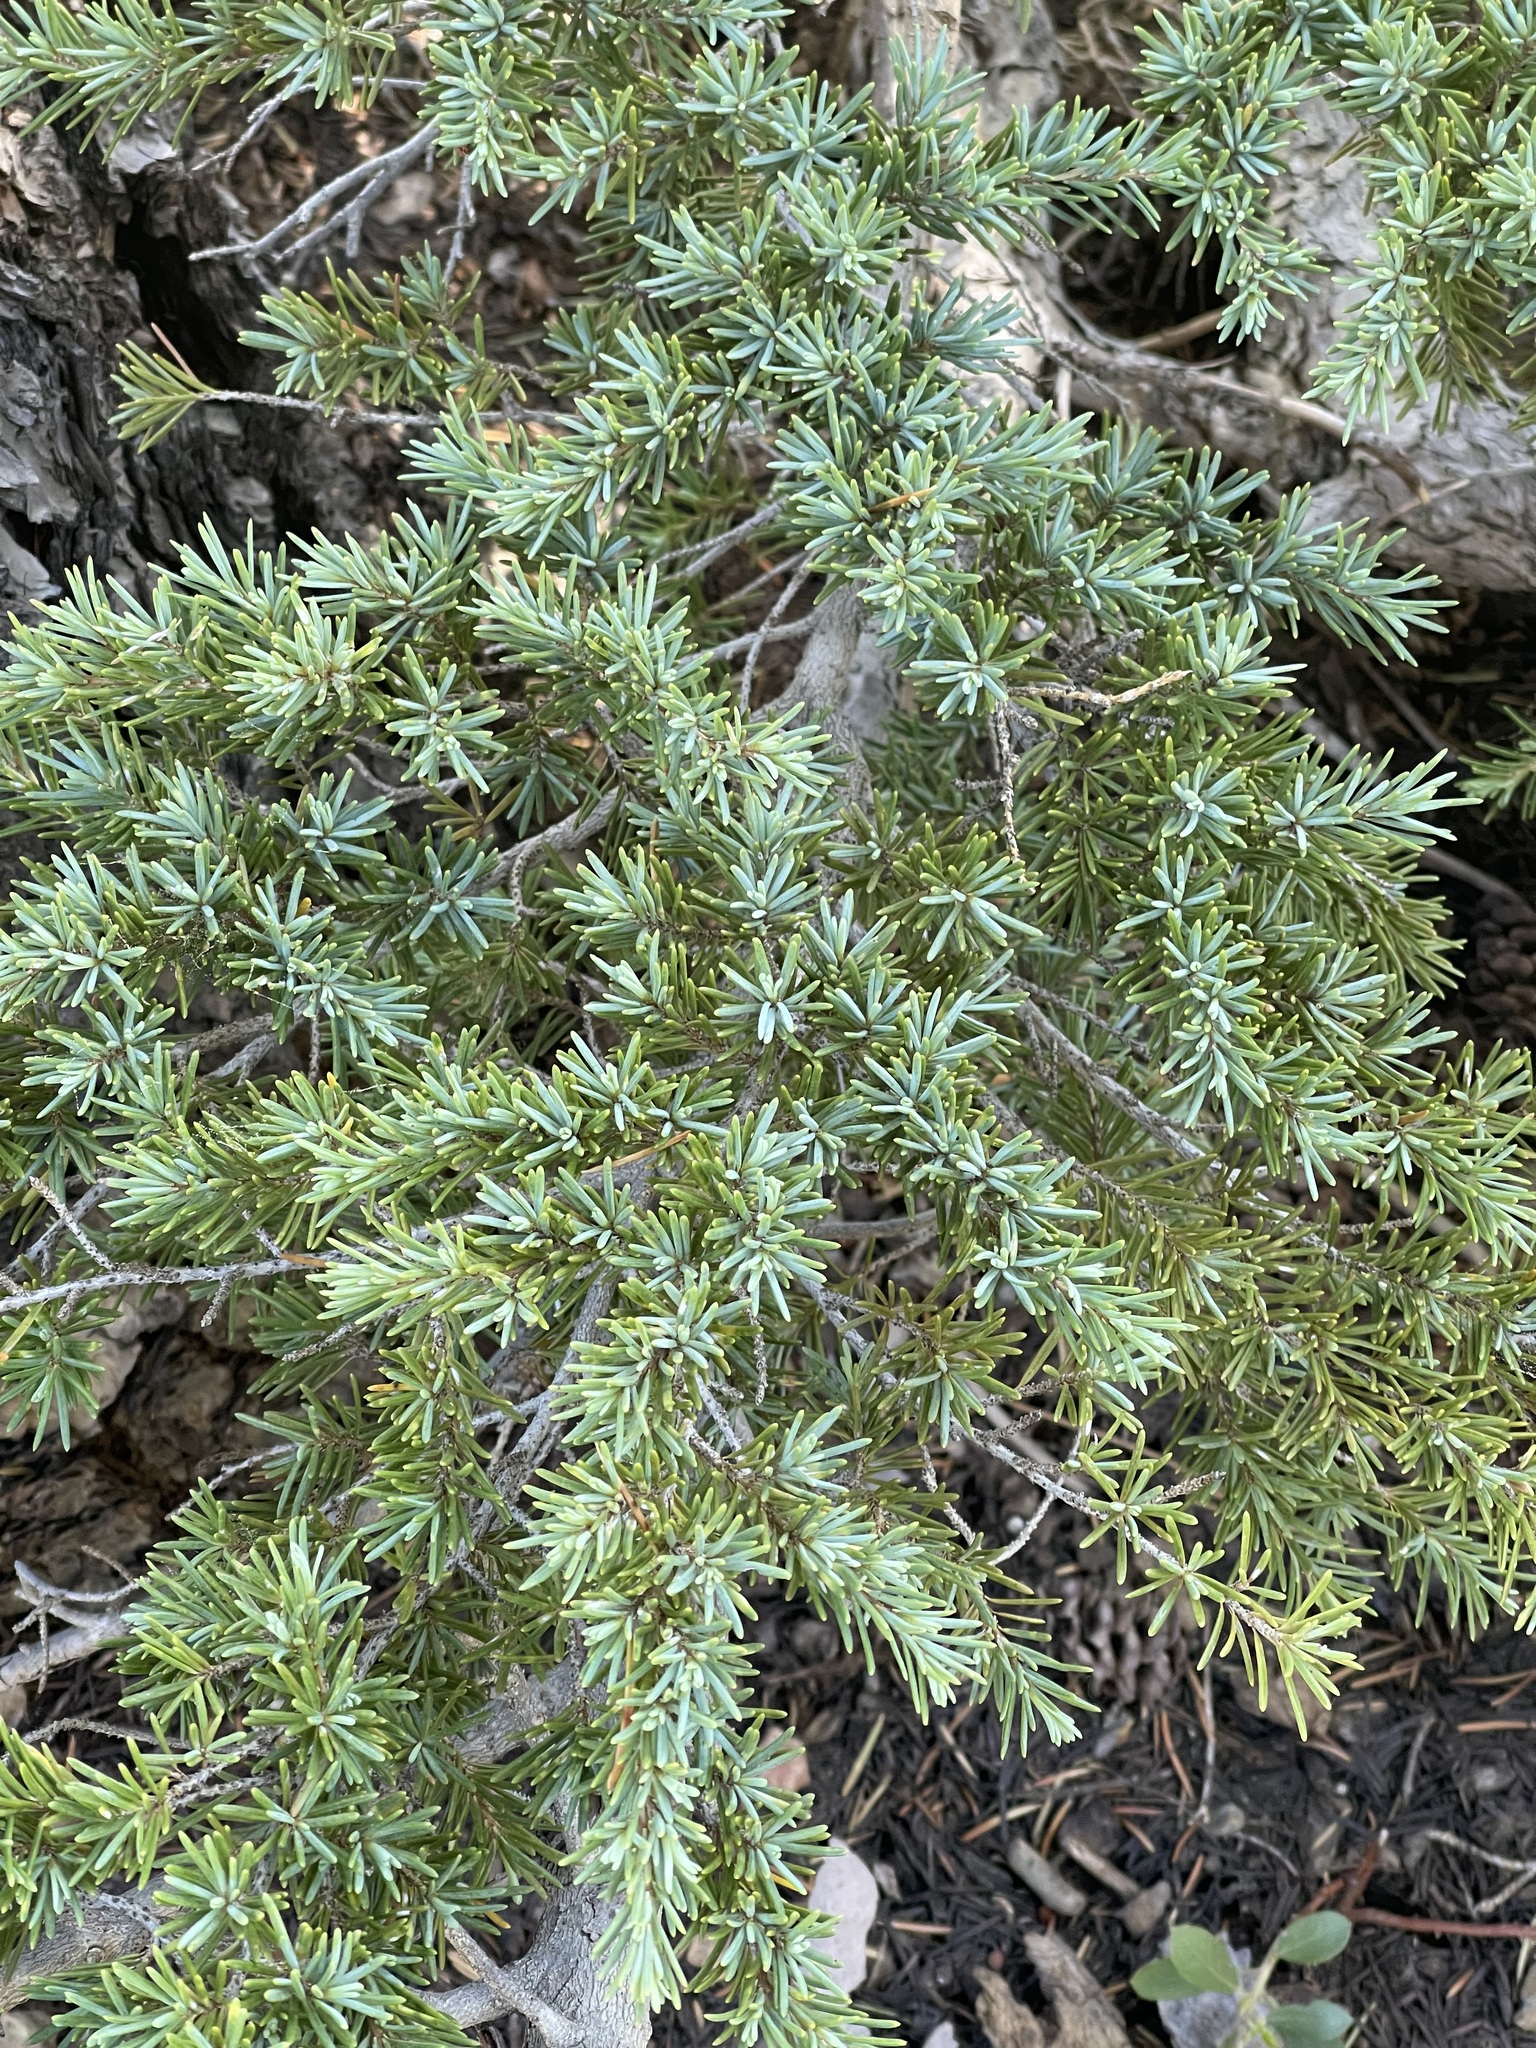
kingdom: Plantae
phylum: Tracheophyta
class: Pinopsida
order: Pinales
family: Pinaceae
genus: Tsuga
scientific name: Tsuga mertensiana
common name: Mountain hemlock
